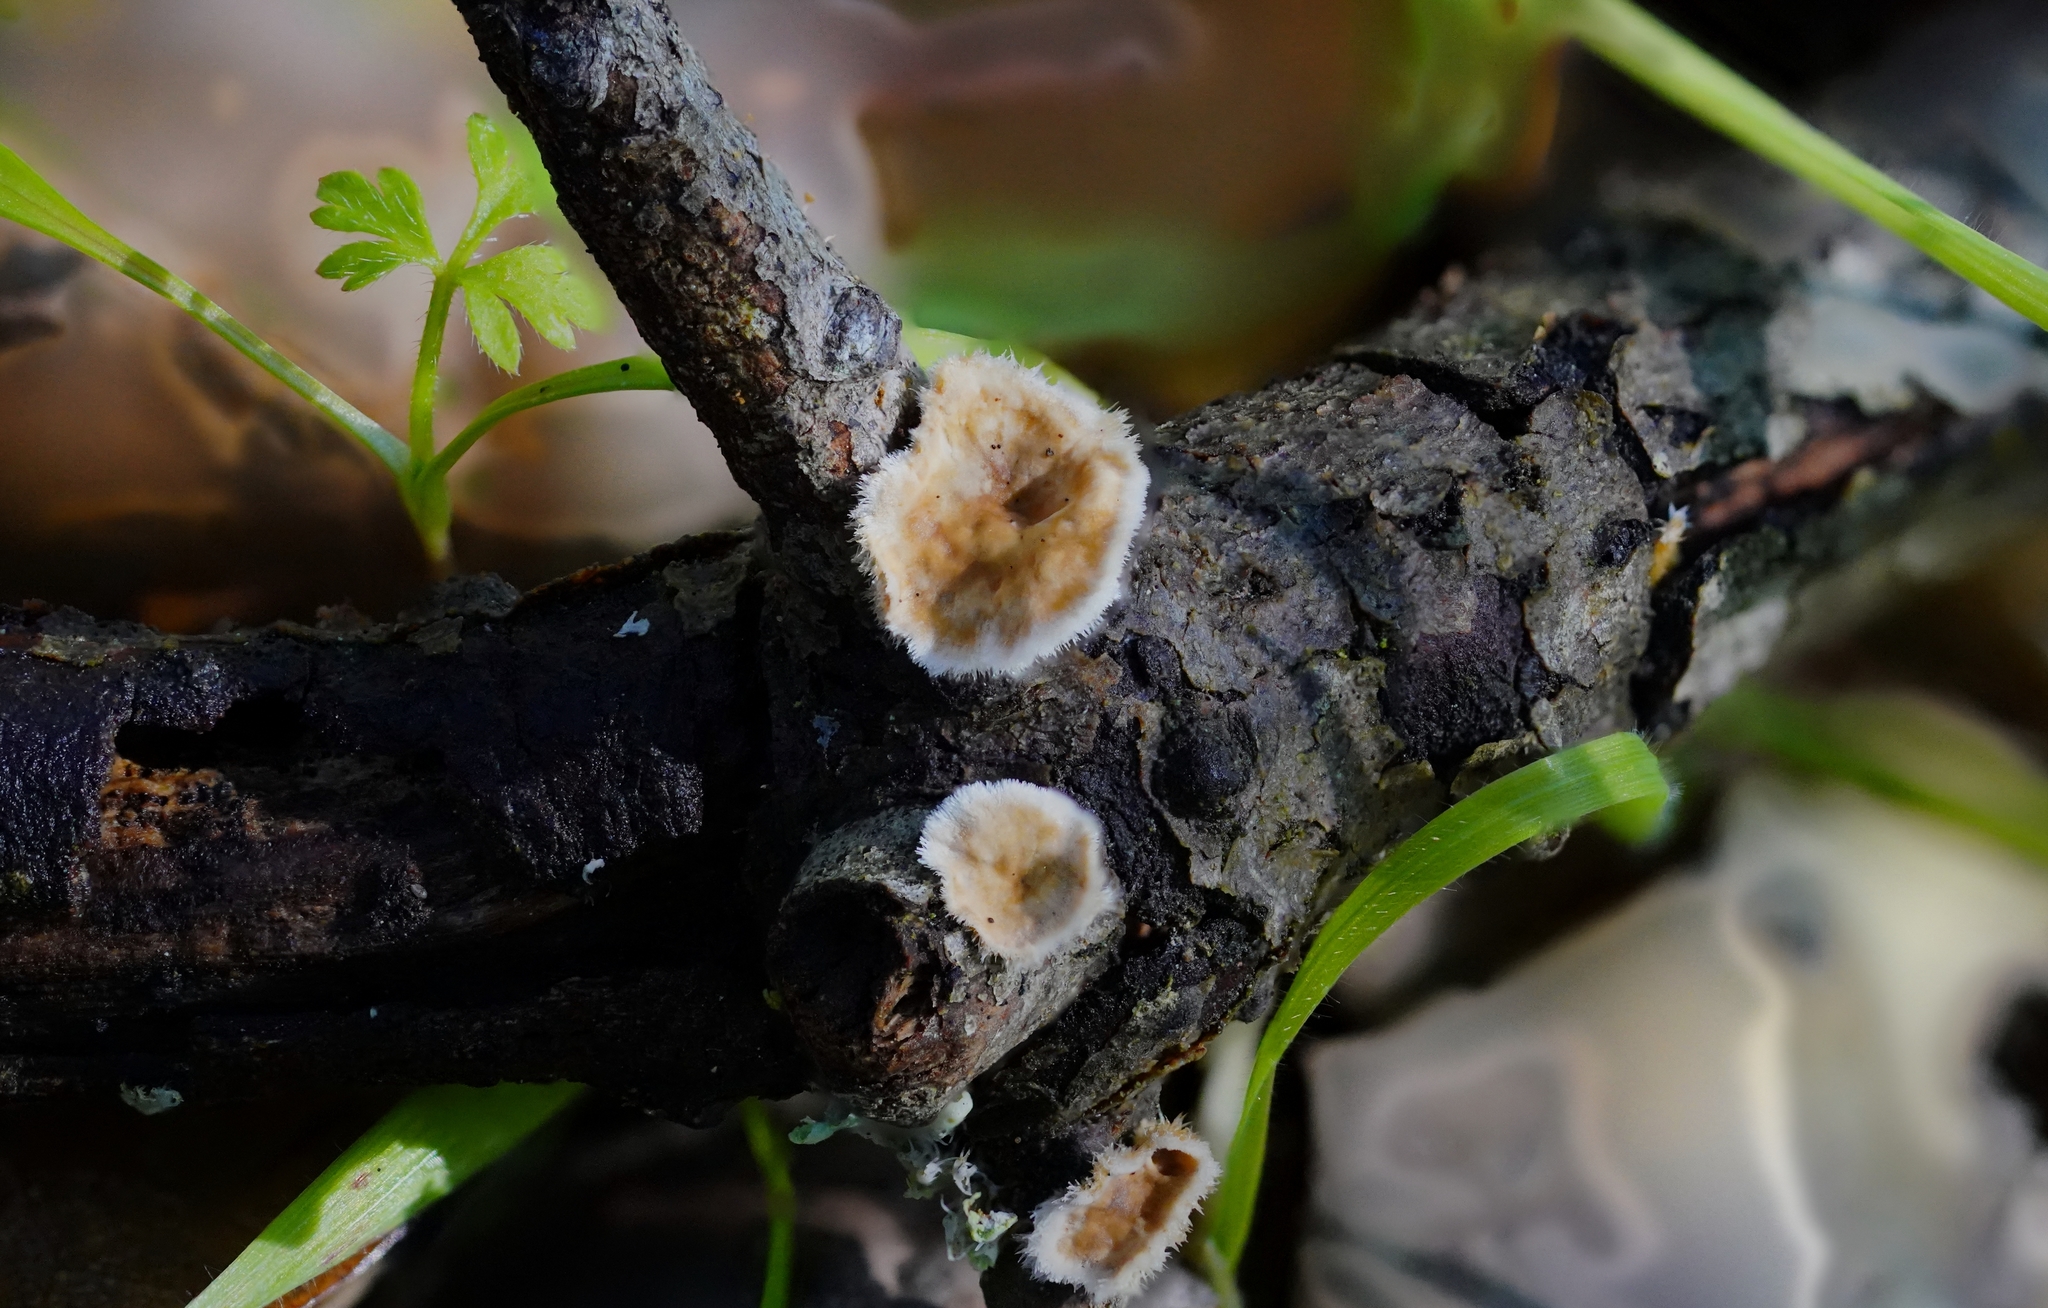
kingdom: Fungi
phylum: Basidiomycota
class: Agaricomycetes
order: Russulales
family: Stereaceae
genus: Stereum
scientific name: Stereum ochraceoflavum
